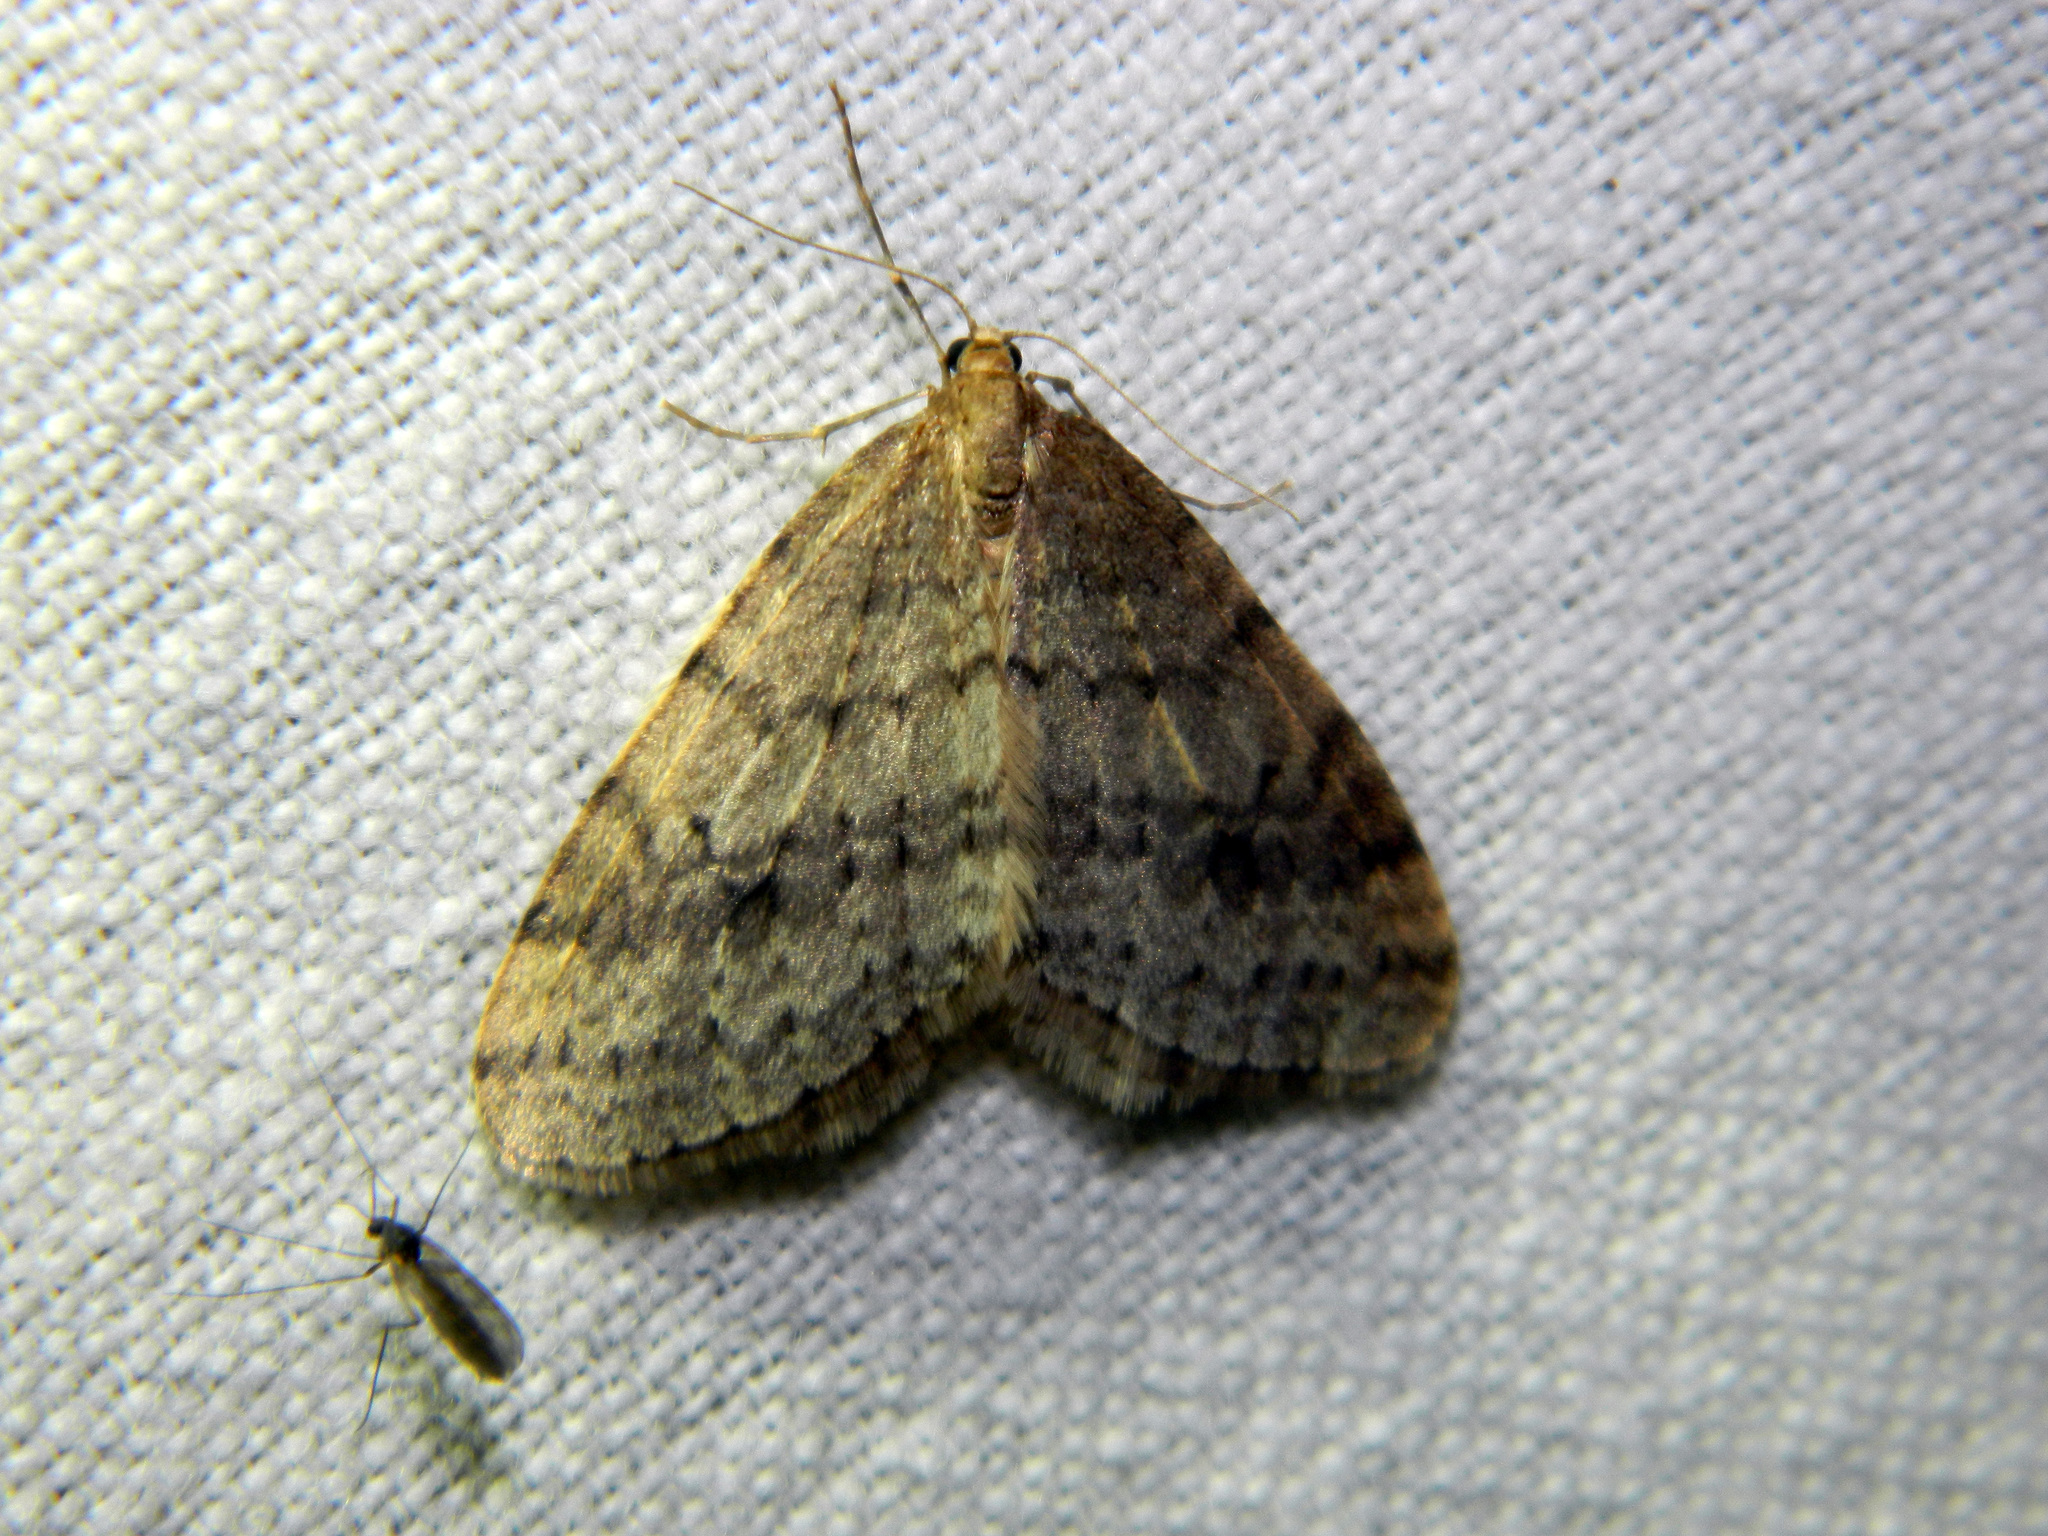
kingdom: Animalia
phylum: Arthropoda
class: Insecta
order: Lepidoptera
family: Geometridae
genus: Operophtera
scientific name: Operophtera bruceata
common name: Bruce spanworm
